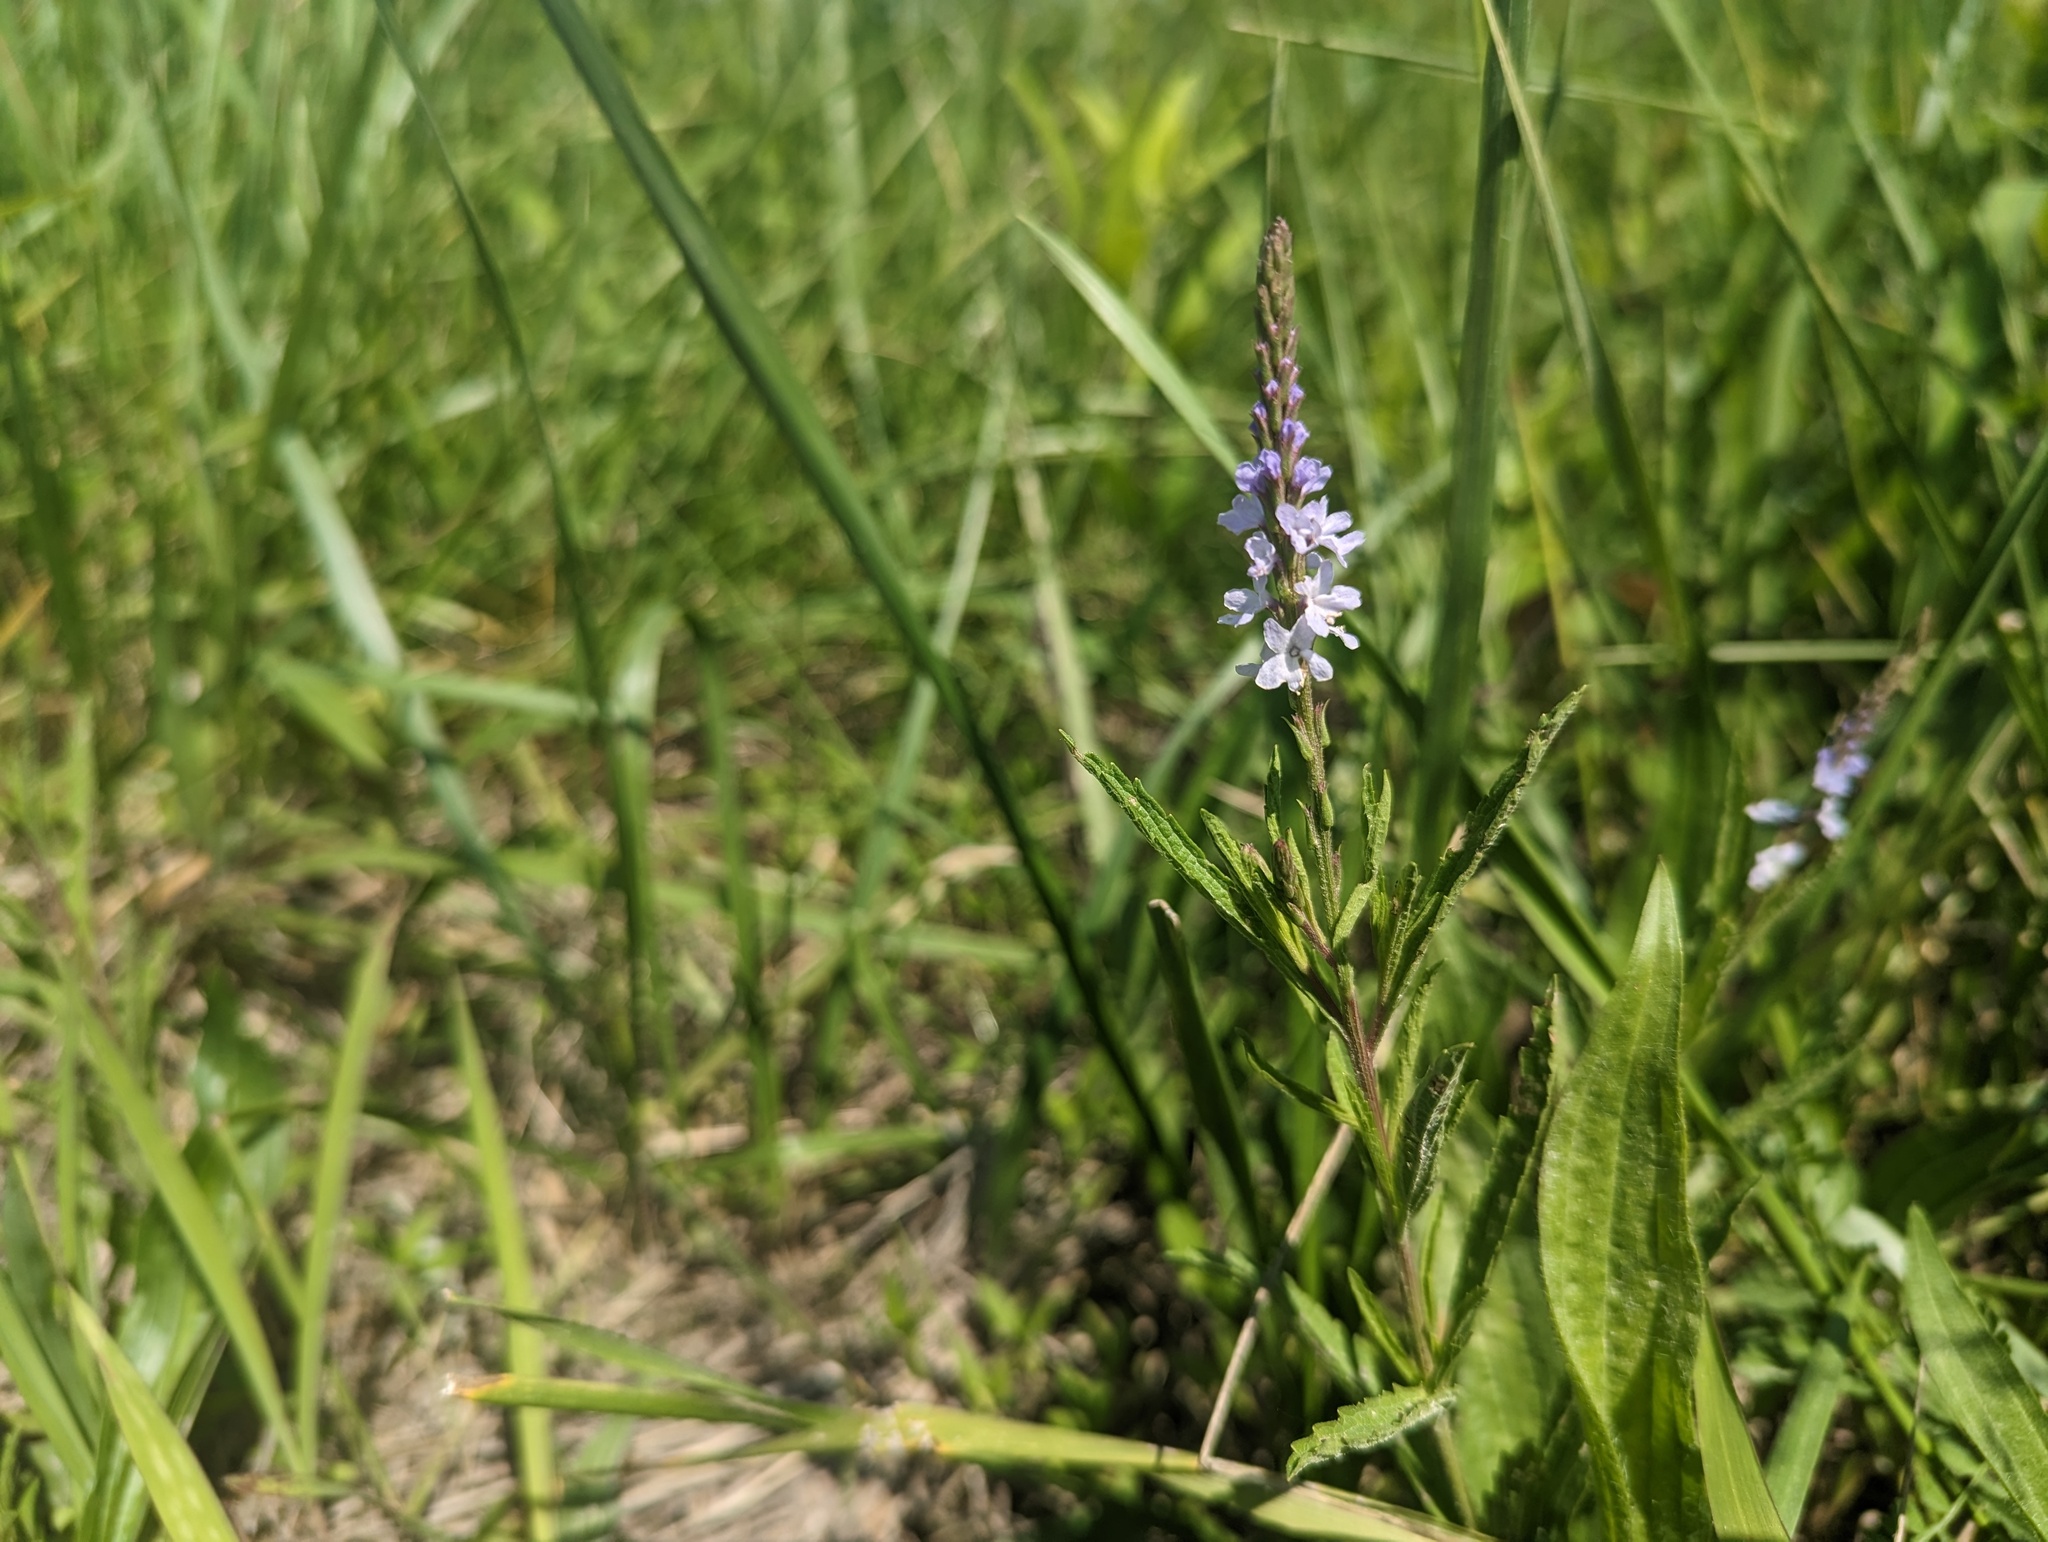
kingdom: Plantae
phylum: Tracheophyta
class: Magnoliopsida
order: Lamiales
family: Verbenaceae
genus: Verbena
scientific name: Verbena simplex
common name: Narrow-leaf vervain
